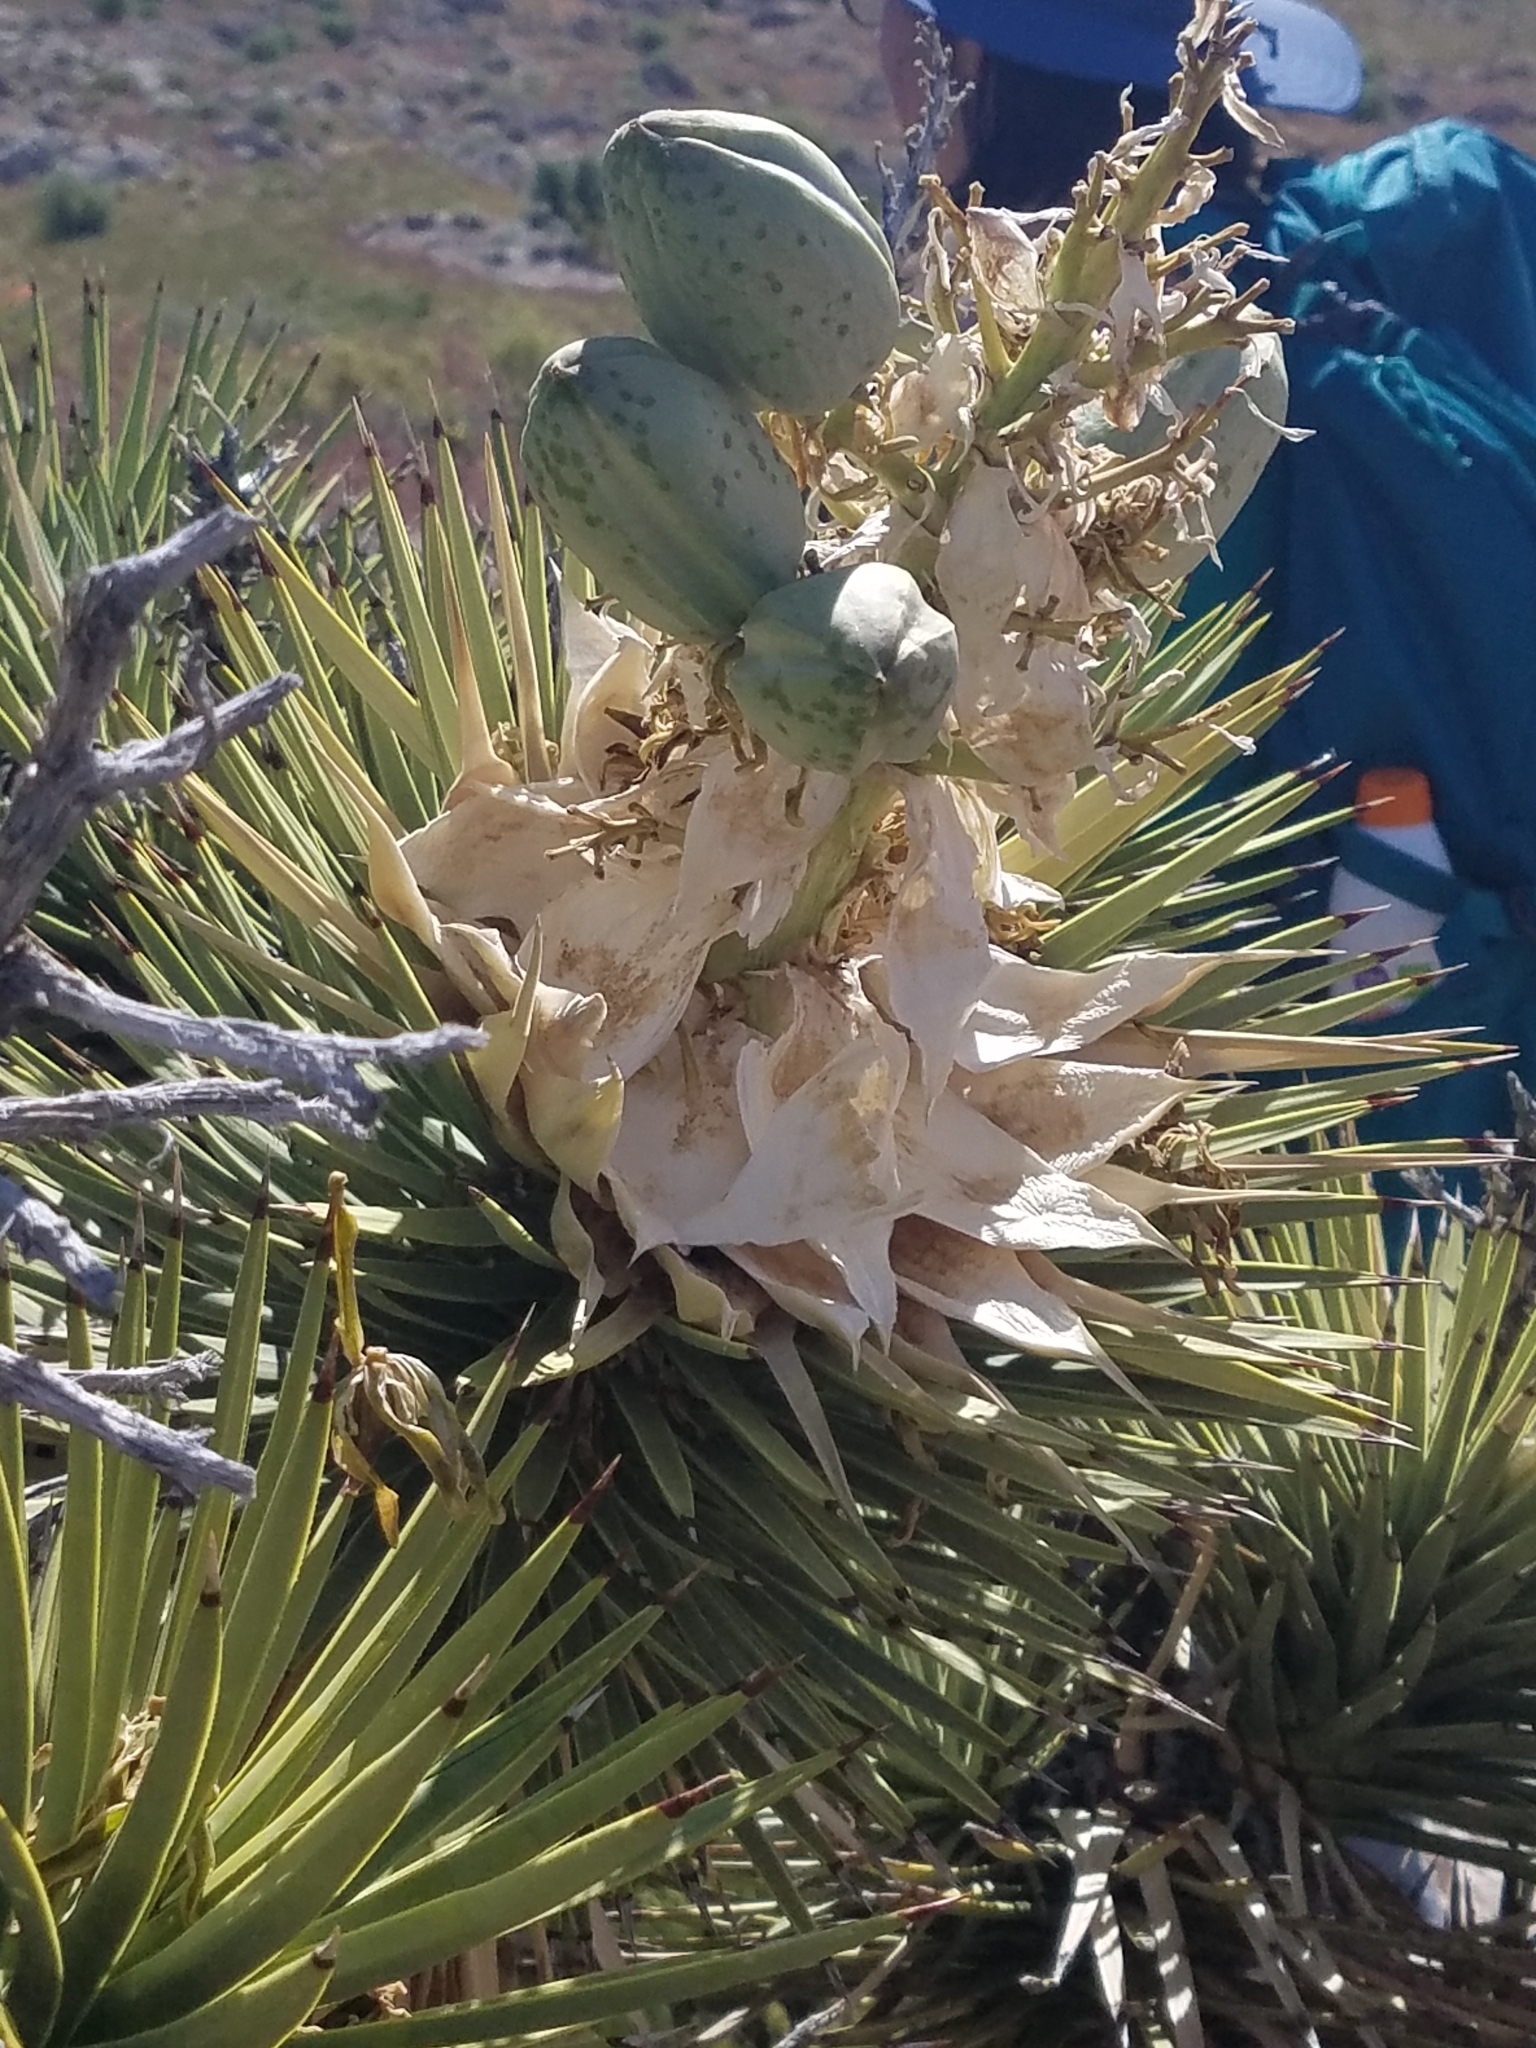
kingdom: Plantae
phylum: Tracheophyta
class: Liliopsida
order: Asparagales
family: Asparagaceae
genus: Yucca
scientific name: Yucca brevifolia
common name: Joshua tree
